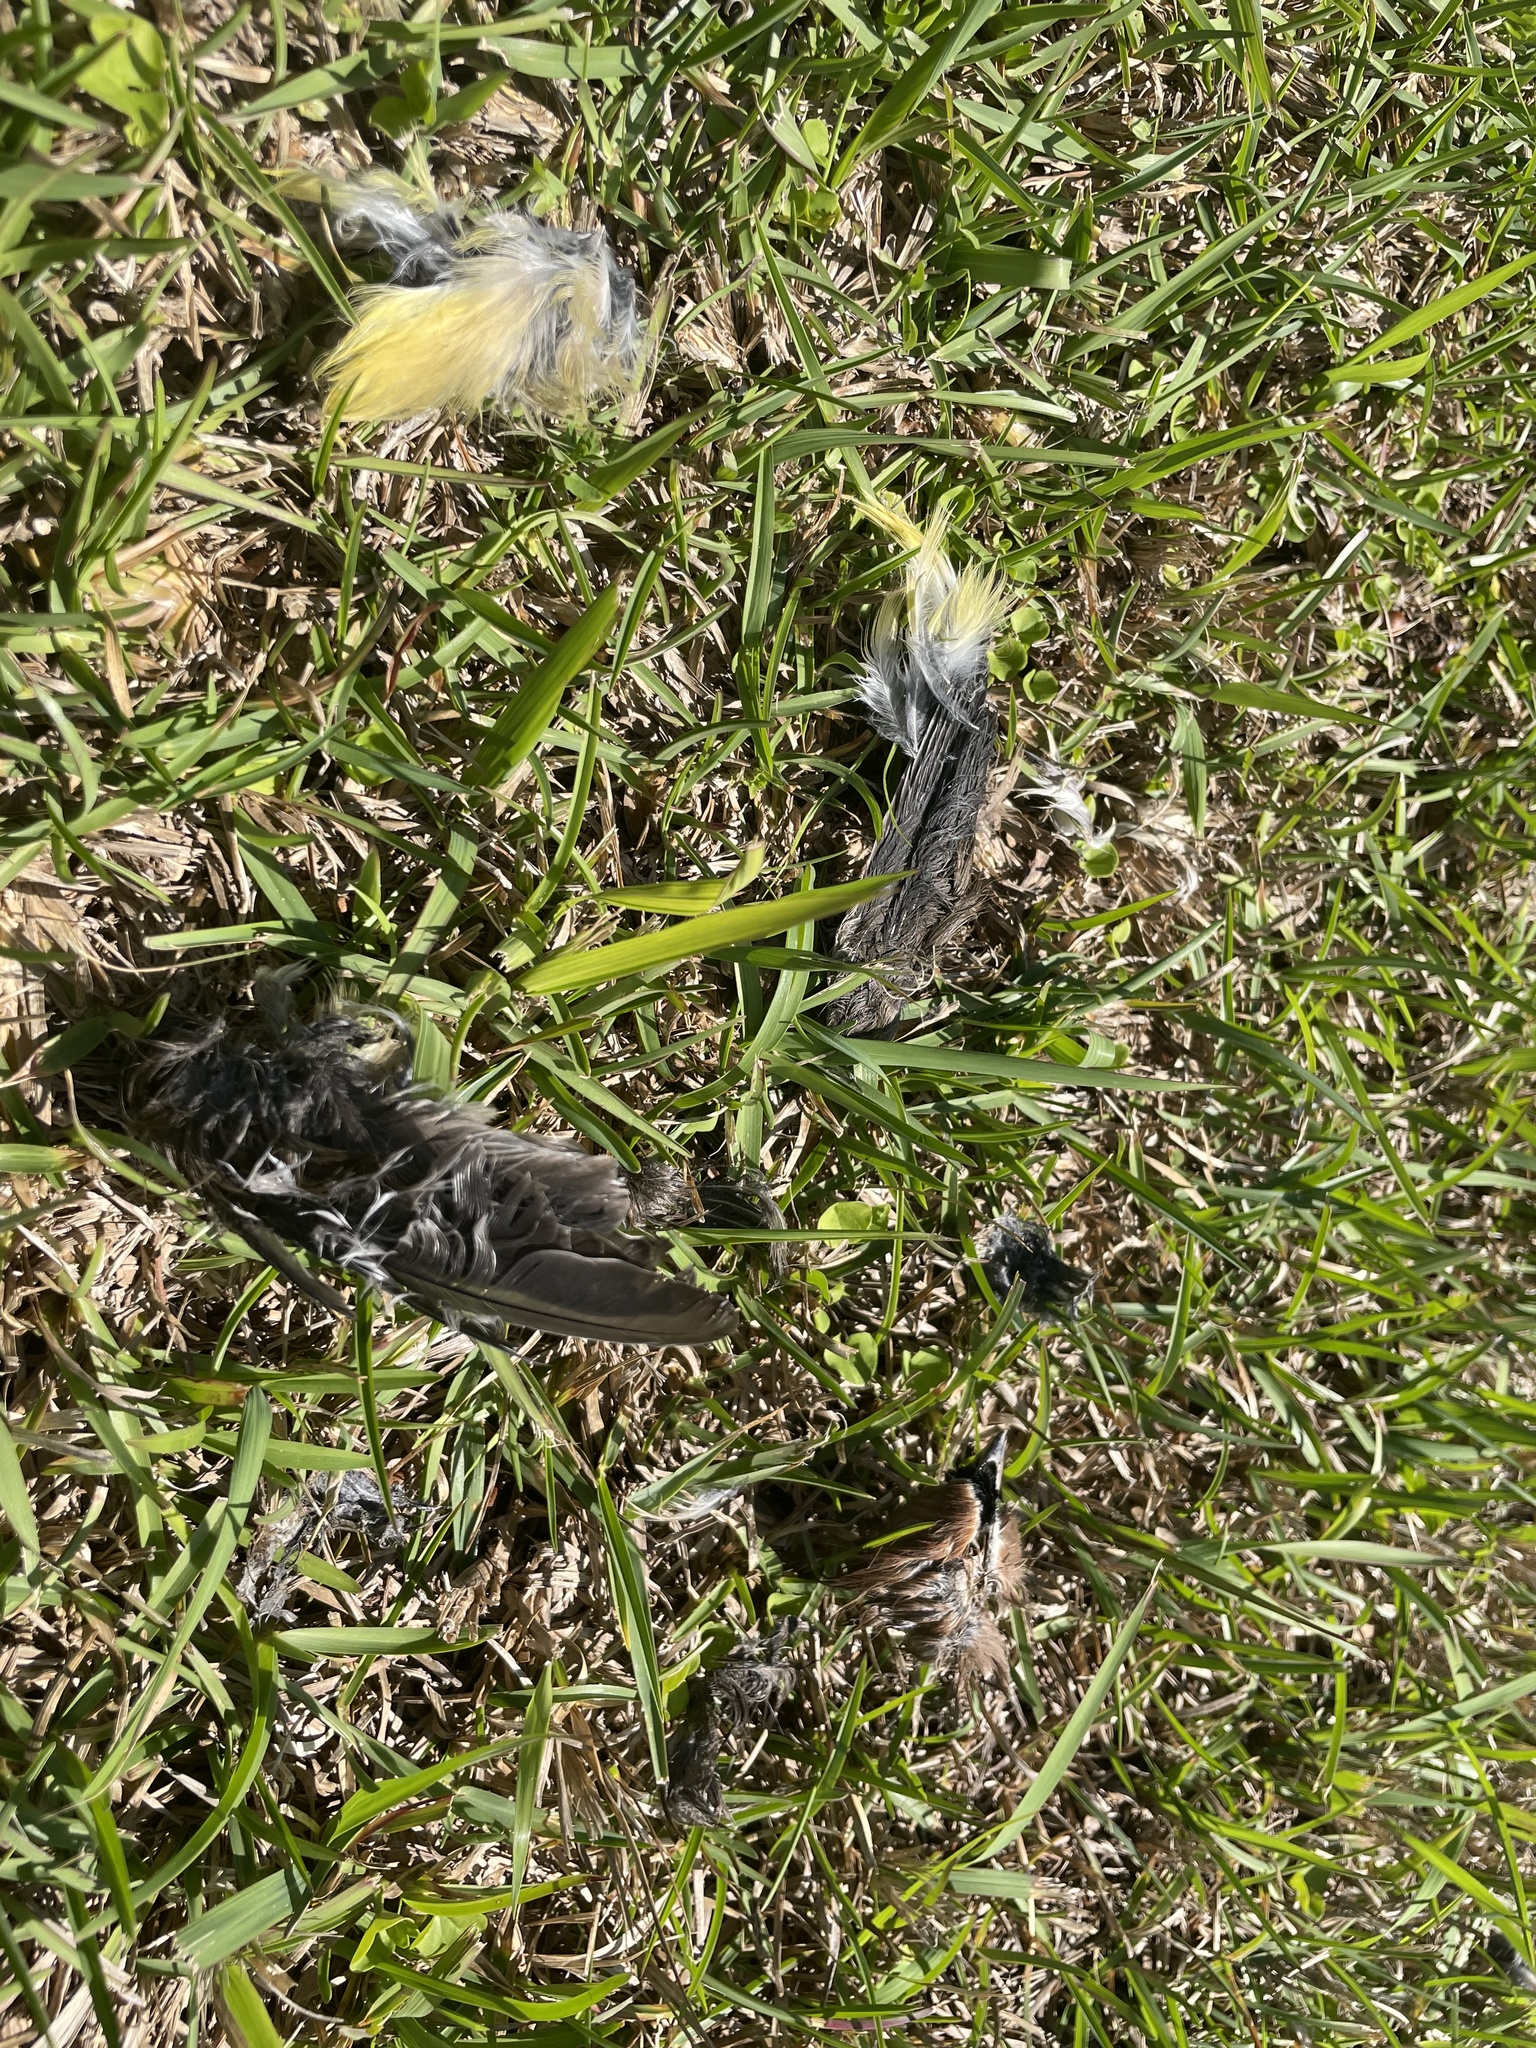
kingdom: Animalia
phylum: Chordata
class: Aves
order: Passeriformes
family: Bombycillidae
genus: Bombycilla
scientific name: Bombycilla cedrorum
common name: Cedar waxwing
